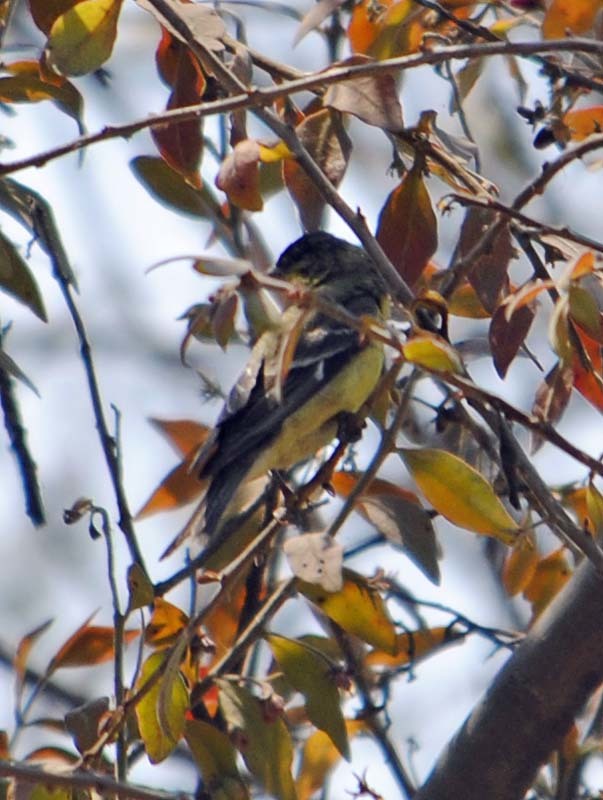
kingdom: Animalia
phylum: Chordata
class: Aves
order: Passeriformes
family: Fringillidae
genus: Spinus
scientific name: Spinus psaltria
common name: Lesser goldfinch
